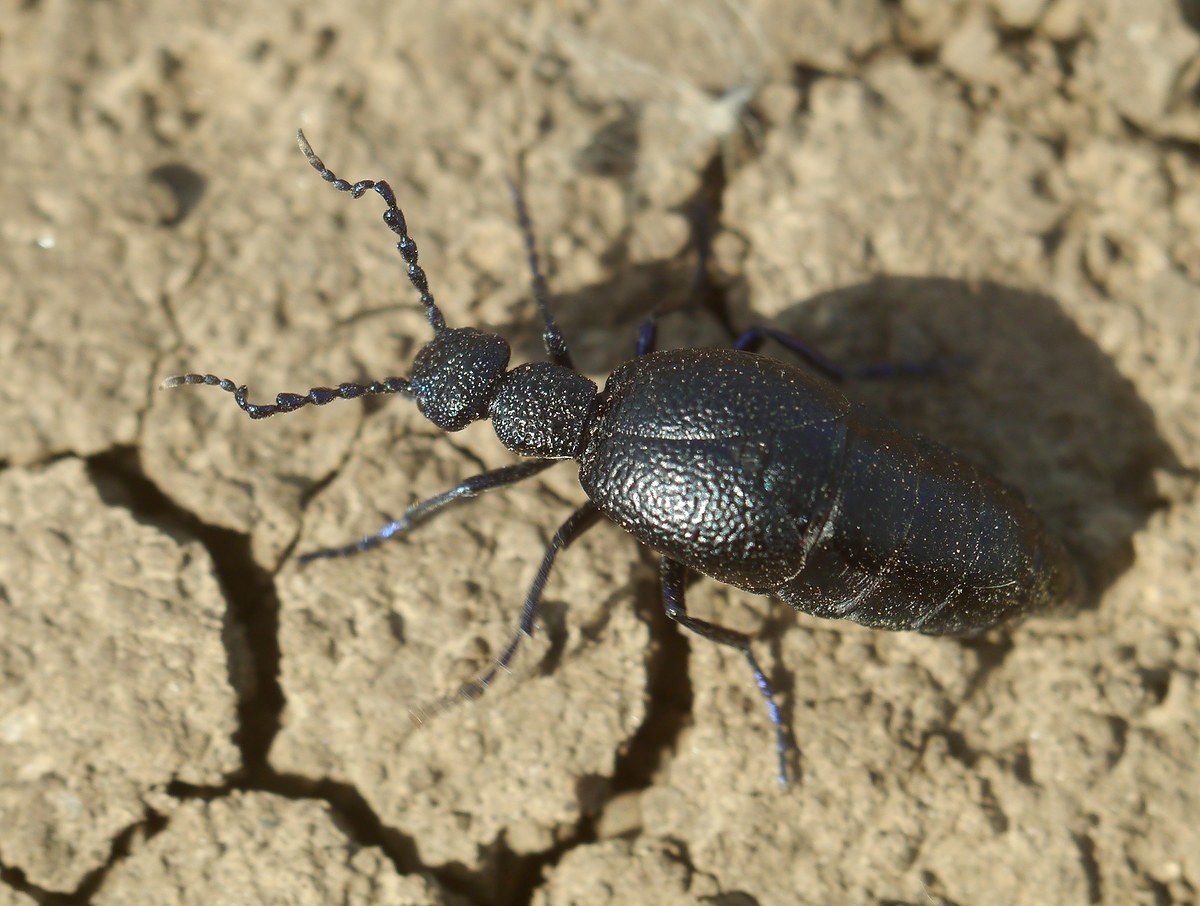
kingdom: Animalia
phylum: Arthropoda
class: Insecta
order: Coleoptera
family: Meloidae
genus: Meloe
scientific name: Meloe proscarabaeus
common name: Black oil-beetle
